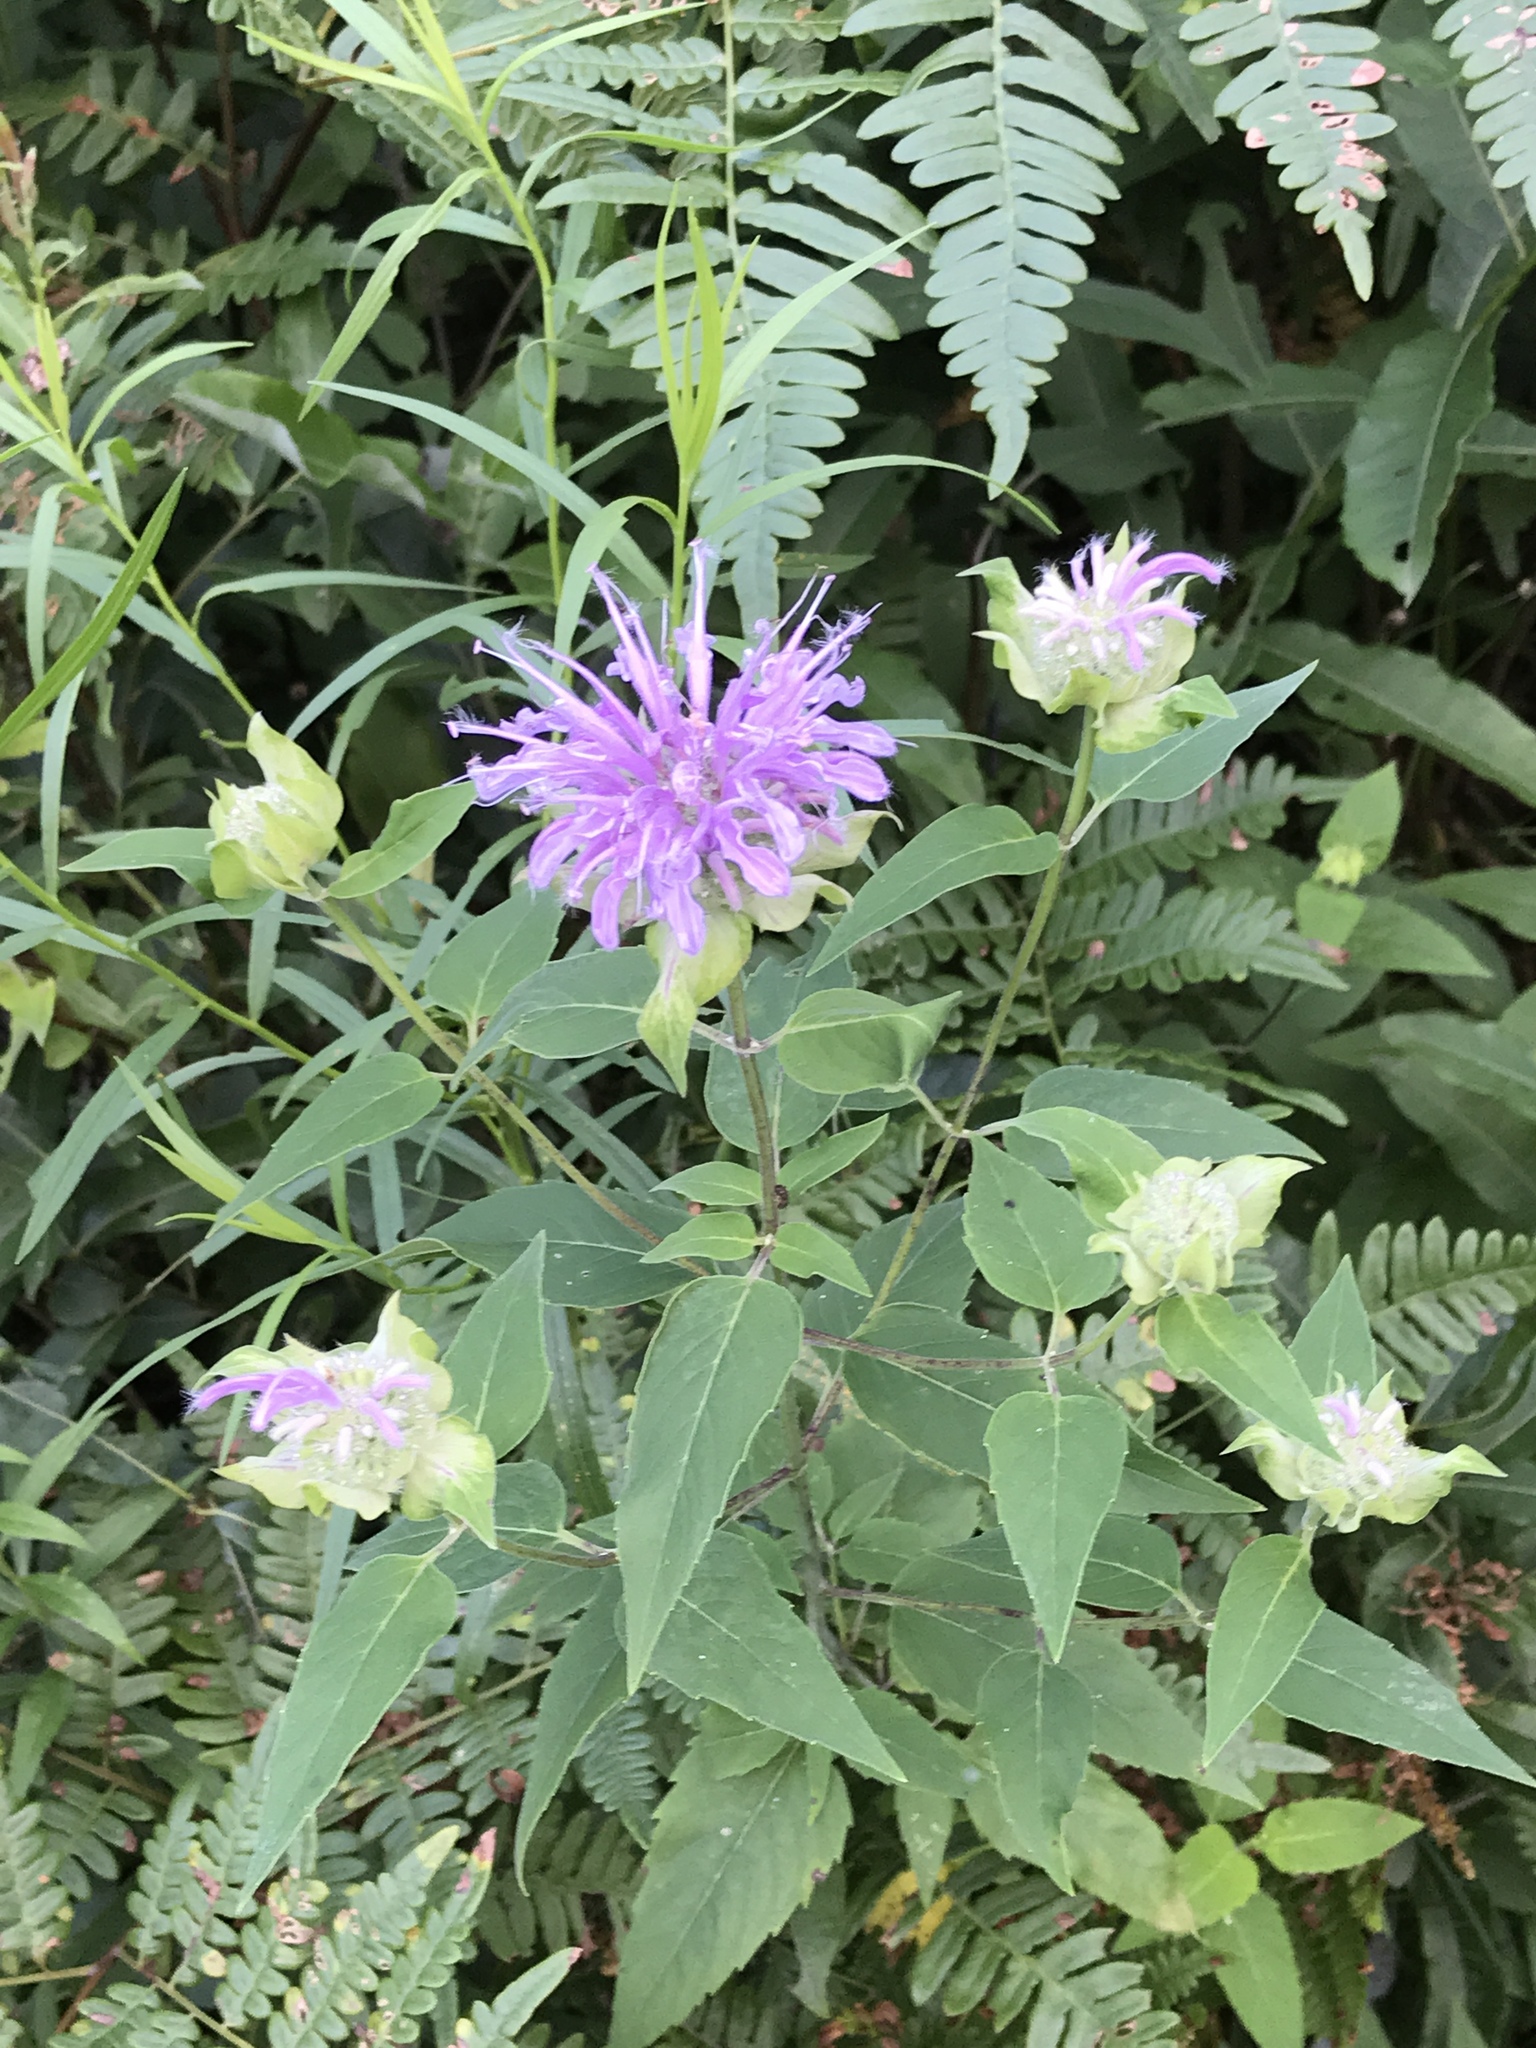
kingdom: Plantae
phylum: Tracheophyta
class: Magnoliopsida
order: Lamiales
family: Lamiaceae
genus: Monarda
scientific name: Monarda fistulosa
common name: Purple beebalm
